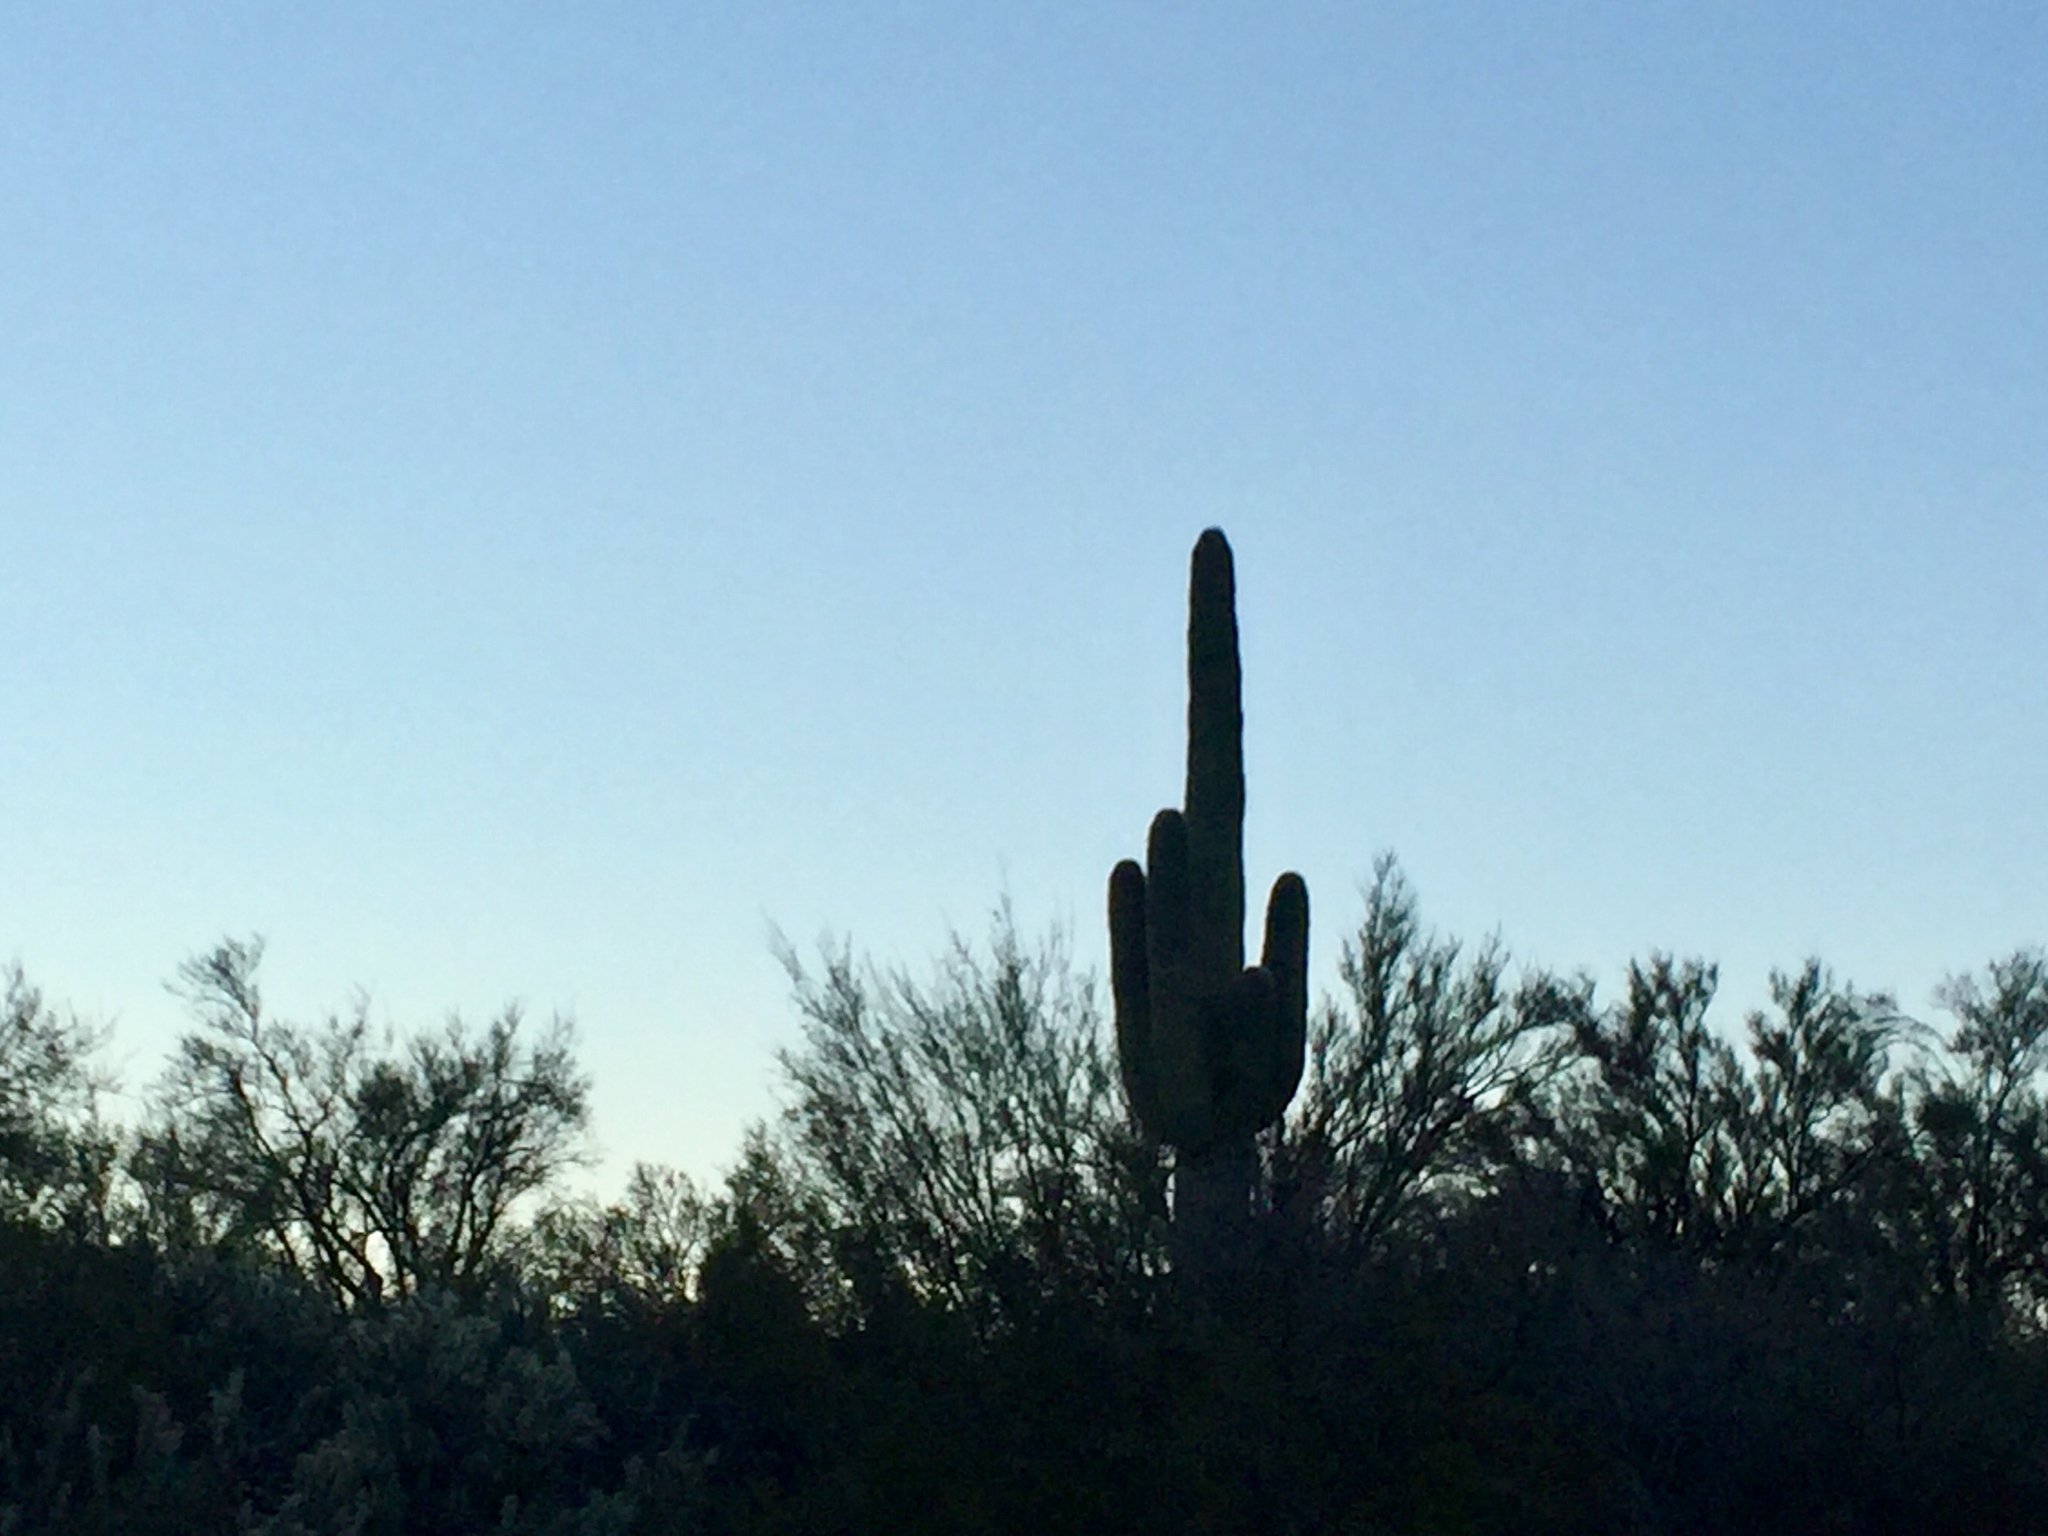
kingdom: Plantae
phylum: Tracheophyta
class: Magnoliopsida
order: Caryophyllales
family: Cactaceae
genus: Carnegiea
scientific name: Carnegiea gigantea
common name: Saguaro
